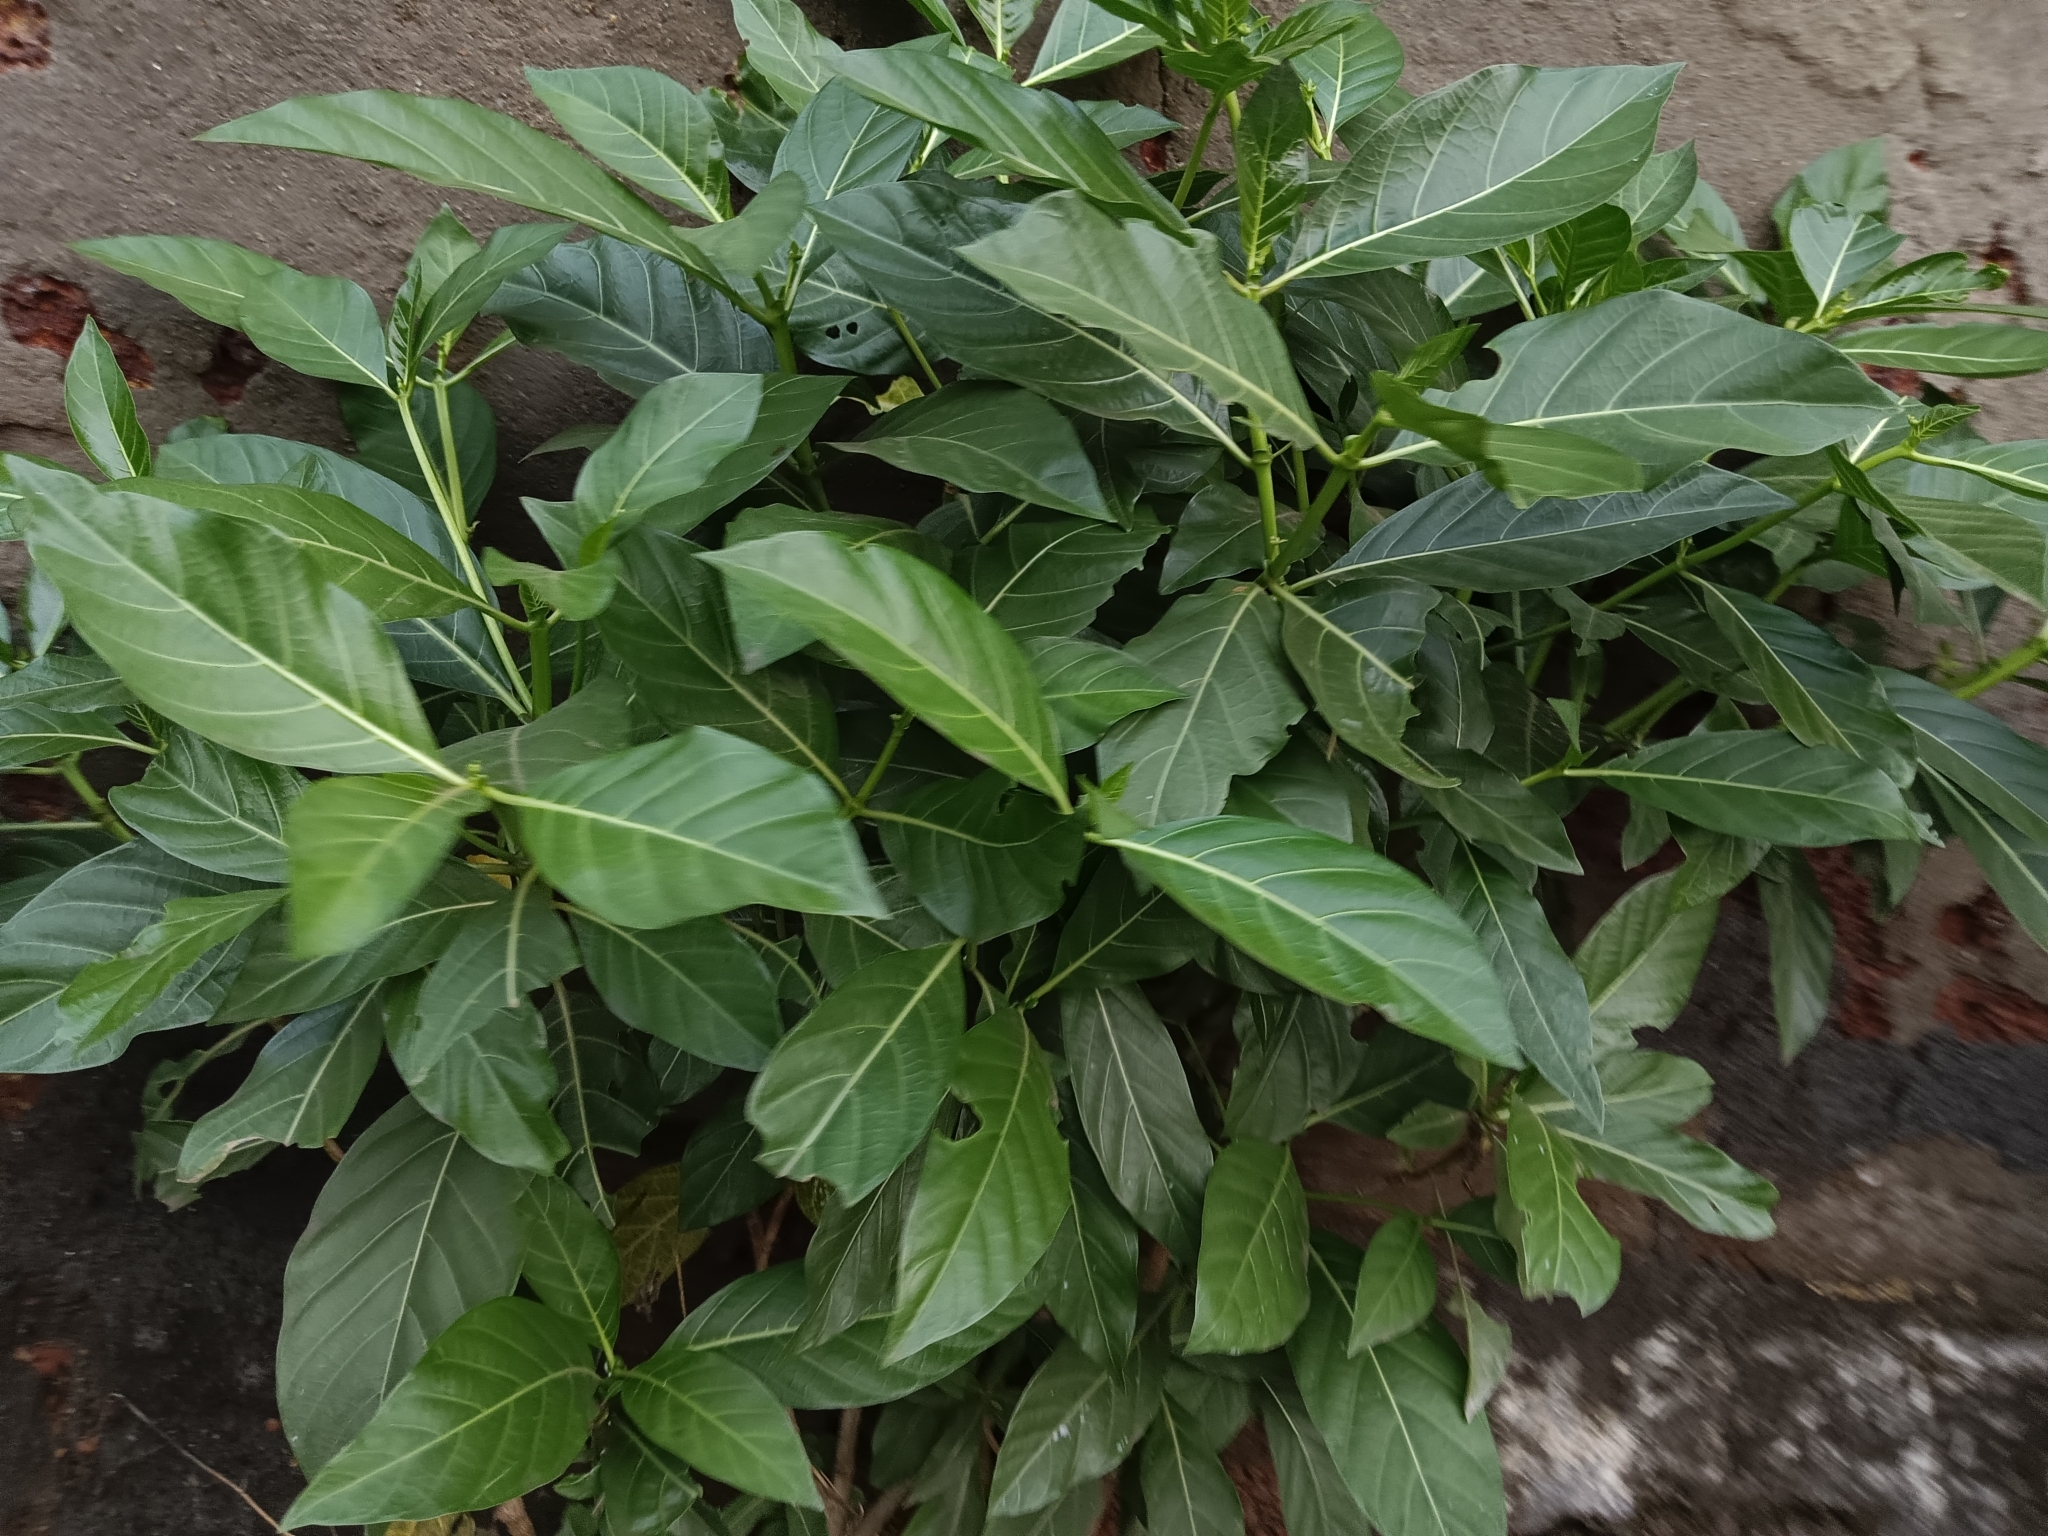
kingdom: Plantae
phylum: Tracheophyta
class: Magnoliopsida
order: Gentianales
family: Rubiaceae
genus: Morinda
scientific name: Morinda citrifolia
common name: Indian-mulberry
